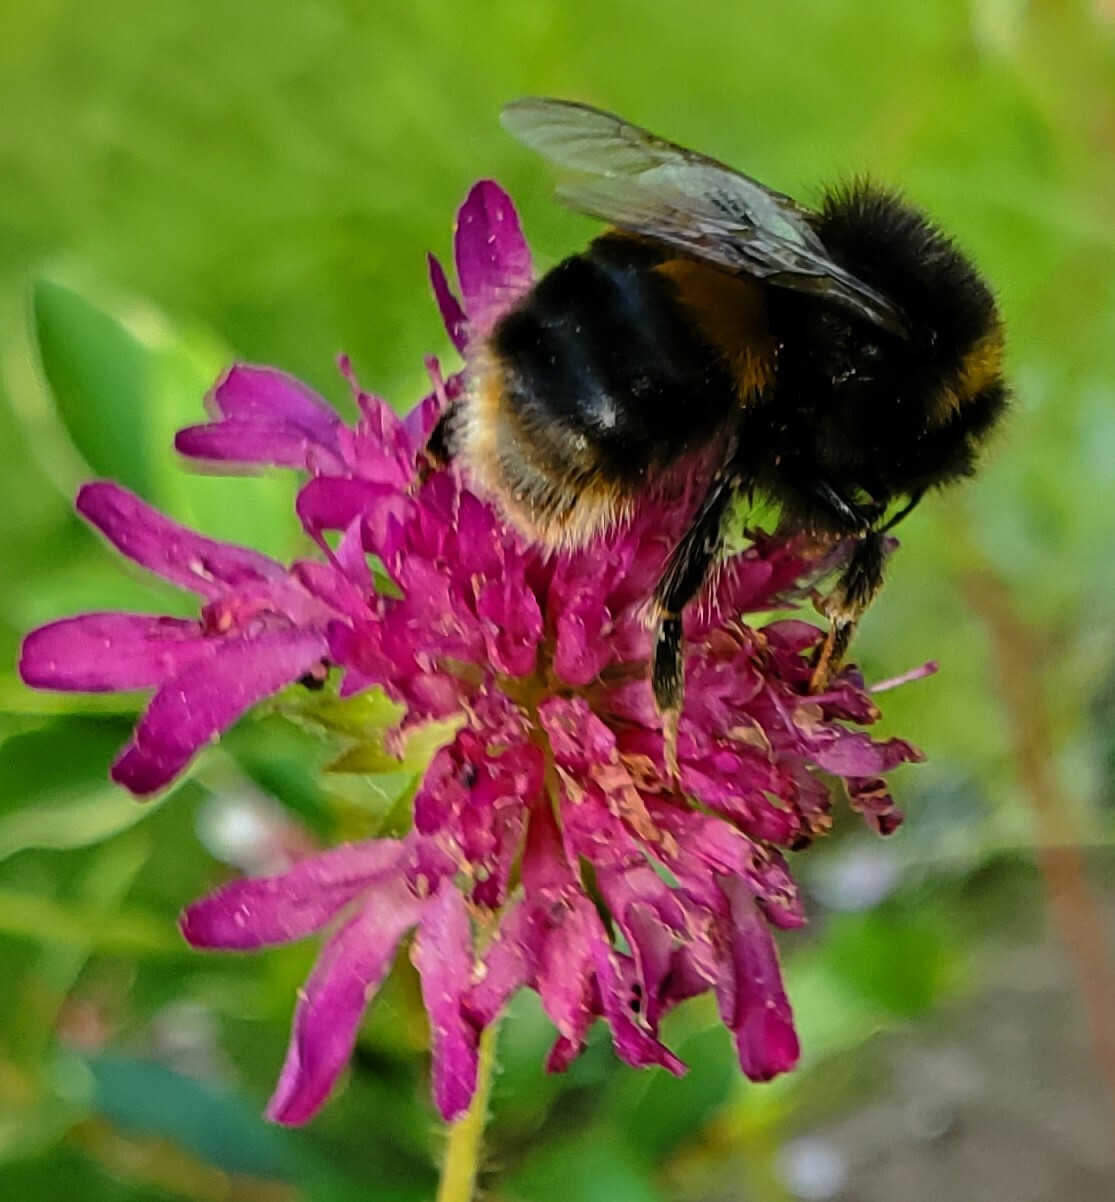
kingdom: Animalia
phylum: Arthropoda
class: Insecta
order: Hymenoptera
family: Apidae
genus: Bombus
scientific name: Bombus terrestris
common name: Buff-tailed bumblebee
